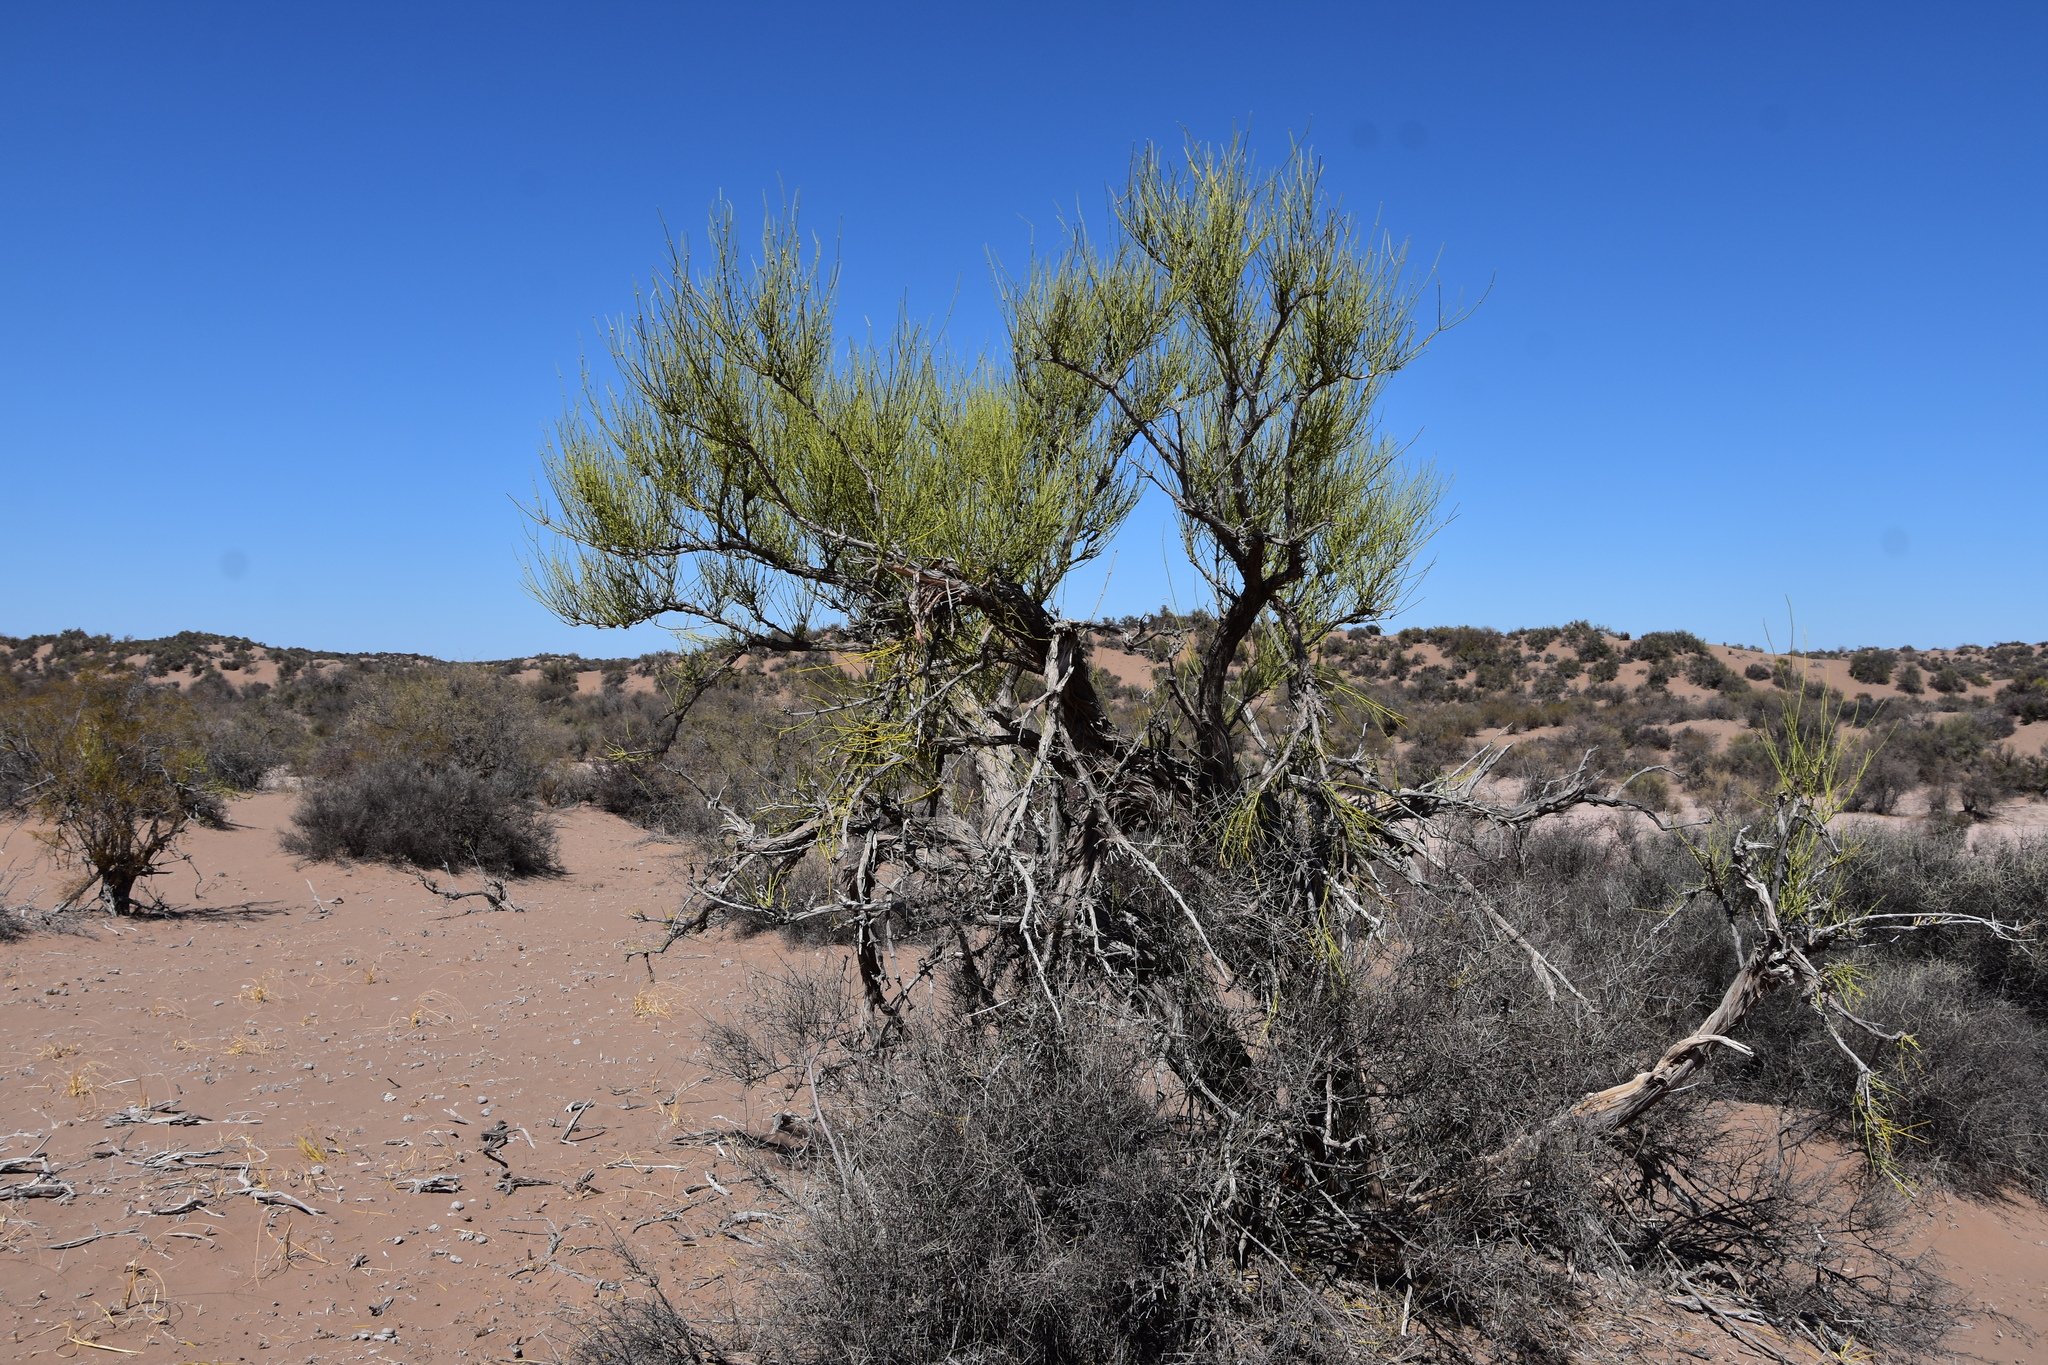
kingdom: Plantae
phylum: Tracheophyta
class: Gnetopsida
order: Ephedrales
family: Ephedraceae
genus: Ephedra
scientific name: Ephedra boelckei
